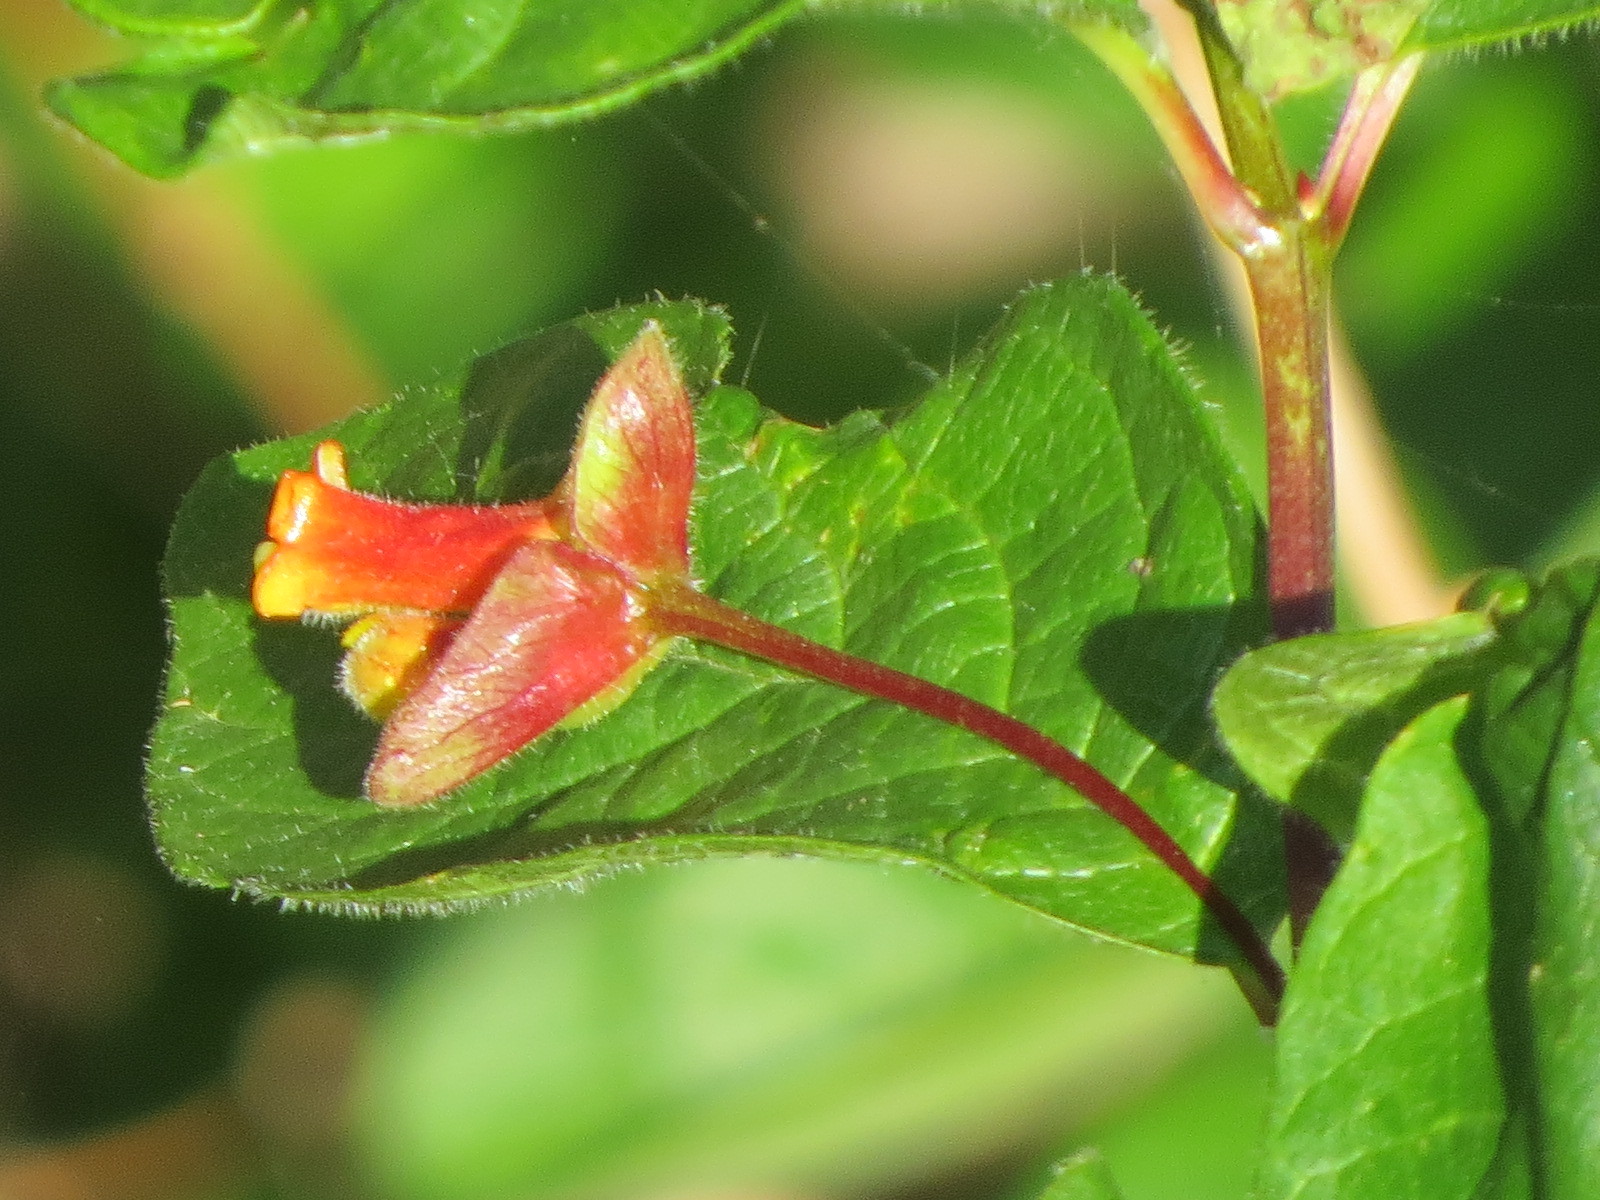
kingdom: Plantae
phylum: Tracheophyta
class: Magnoliopsida
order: Dipsacales
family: Caprifoliaceae
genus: Lonicera
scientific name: Lonicera involucrata
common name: Californian honeysuckle
